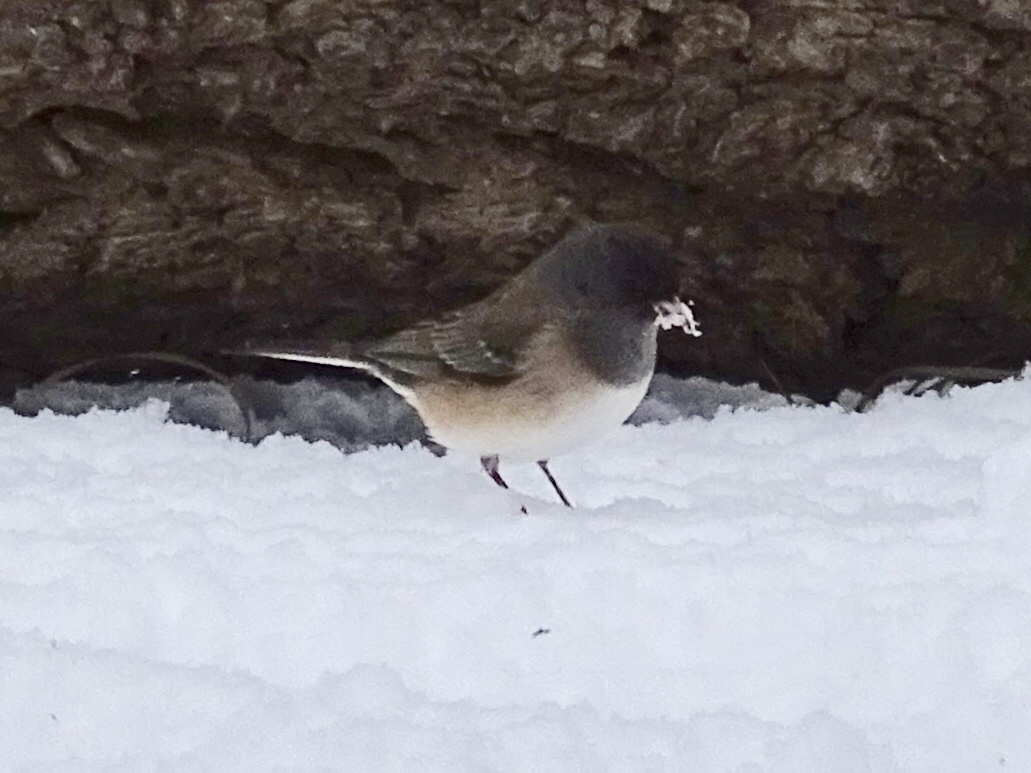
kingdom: Animalia
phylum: Chordata
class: Aves
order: Passeriformes
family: Passerellidae
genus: Junco
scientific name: Junco hyemalis
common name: Dark-eyed junco
